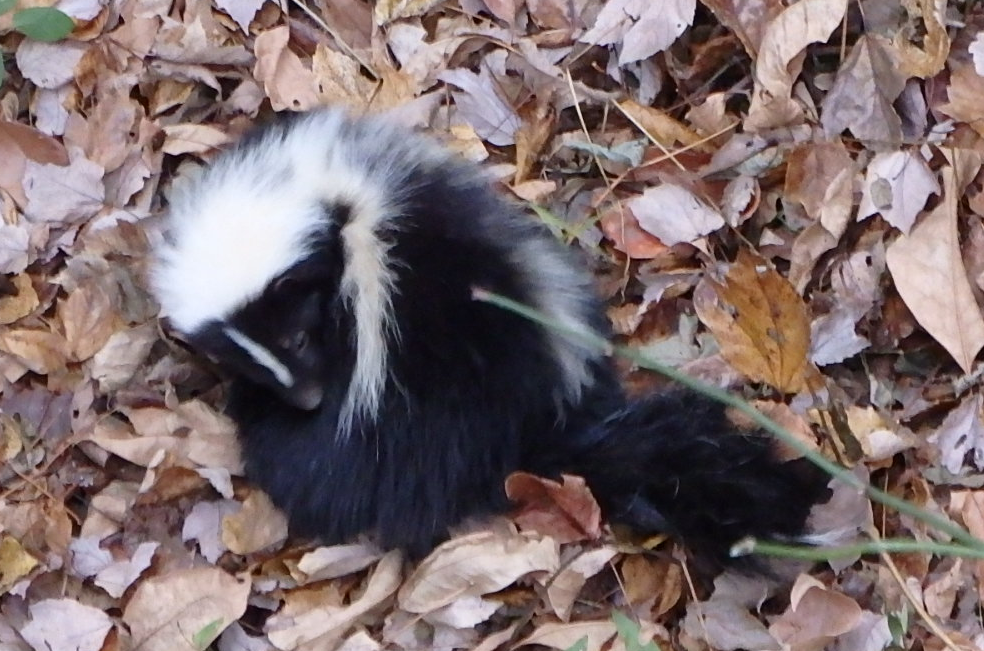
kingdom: Animalia
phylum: Chordata
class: Mammalia
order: Carnivora
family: Mephitidae
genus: Mephitis
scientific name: Mephitis mephitis
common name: Striped skunk
